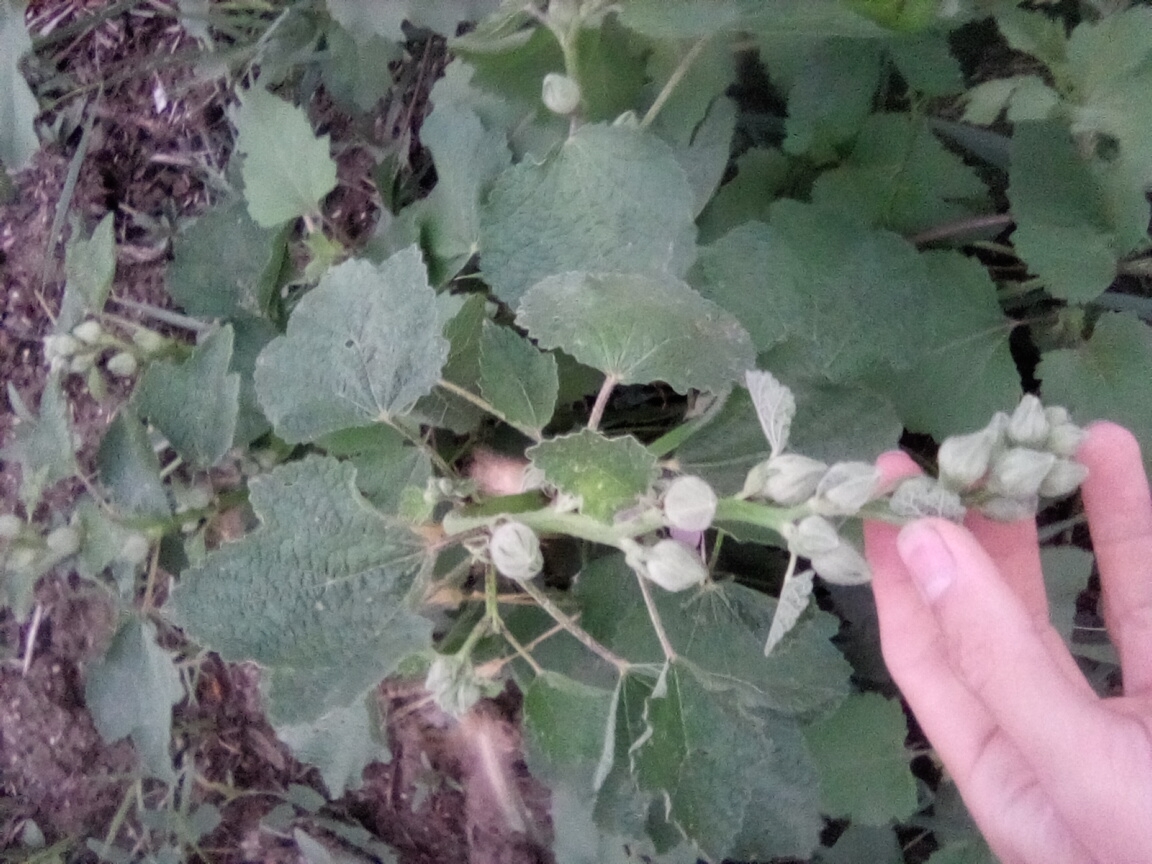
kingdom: Plantae
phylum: Tracheophyta
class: Magnoliopsida
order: Malvales
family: Malvaceae
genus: Alcea
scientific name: Alcea rugosa
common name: Russian hollyhock
